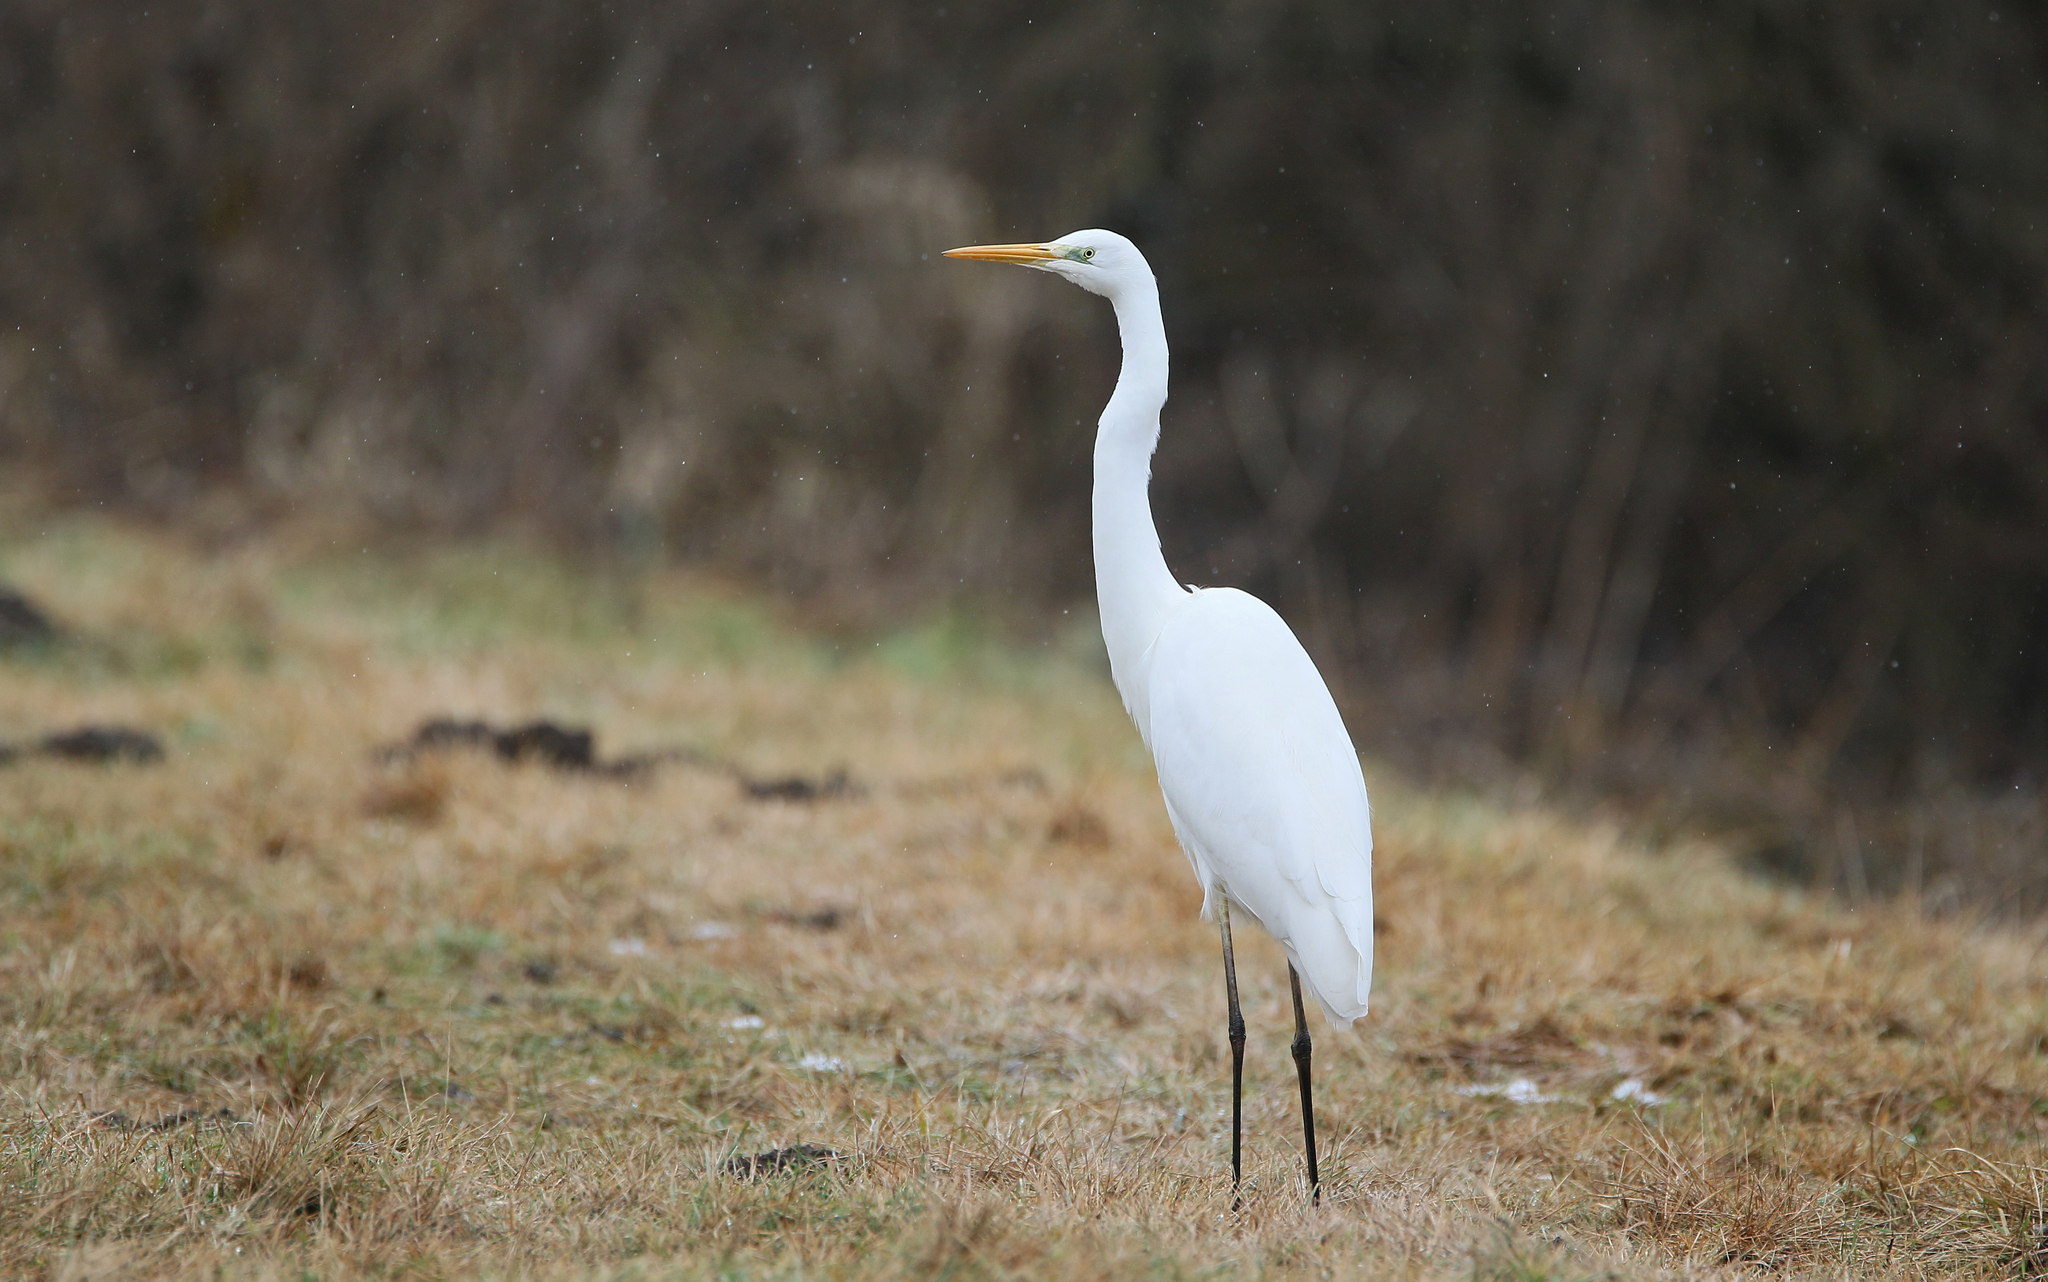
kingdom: Animalia
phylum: Chordata
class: Aves
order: Pelecaniformes
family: Ardeidae
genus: Ardea
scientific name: Ardea alba
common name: Great egret
